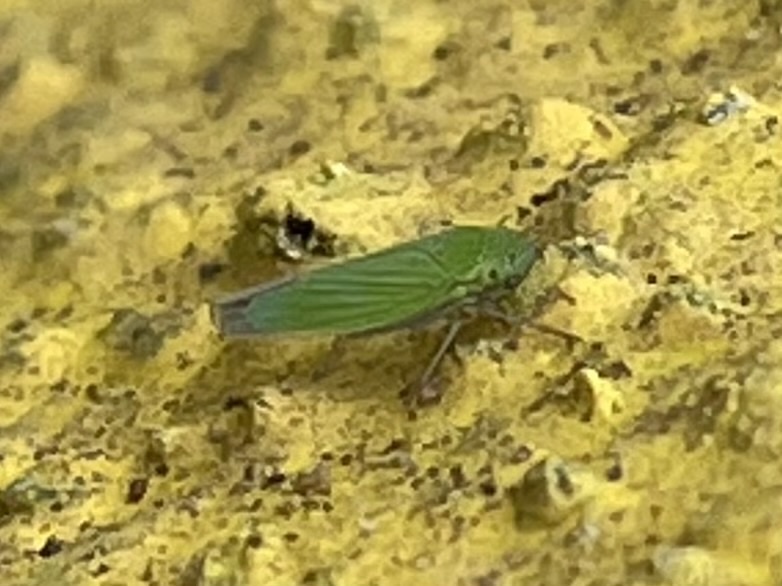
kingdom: Animalia
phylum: Arthropoda
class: Insecta
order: Hemiptera
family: Cicadellidae
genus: Hortensia
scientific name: Hortensia similis
